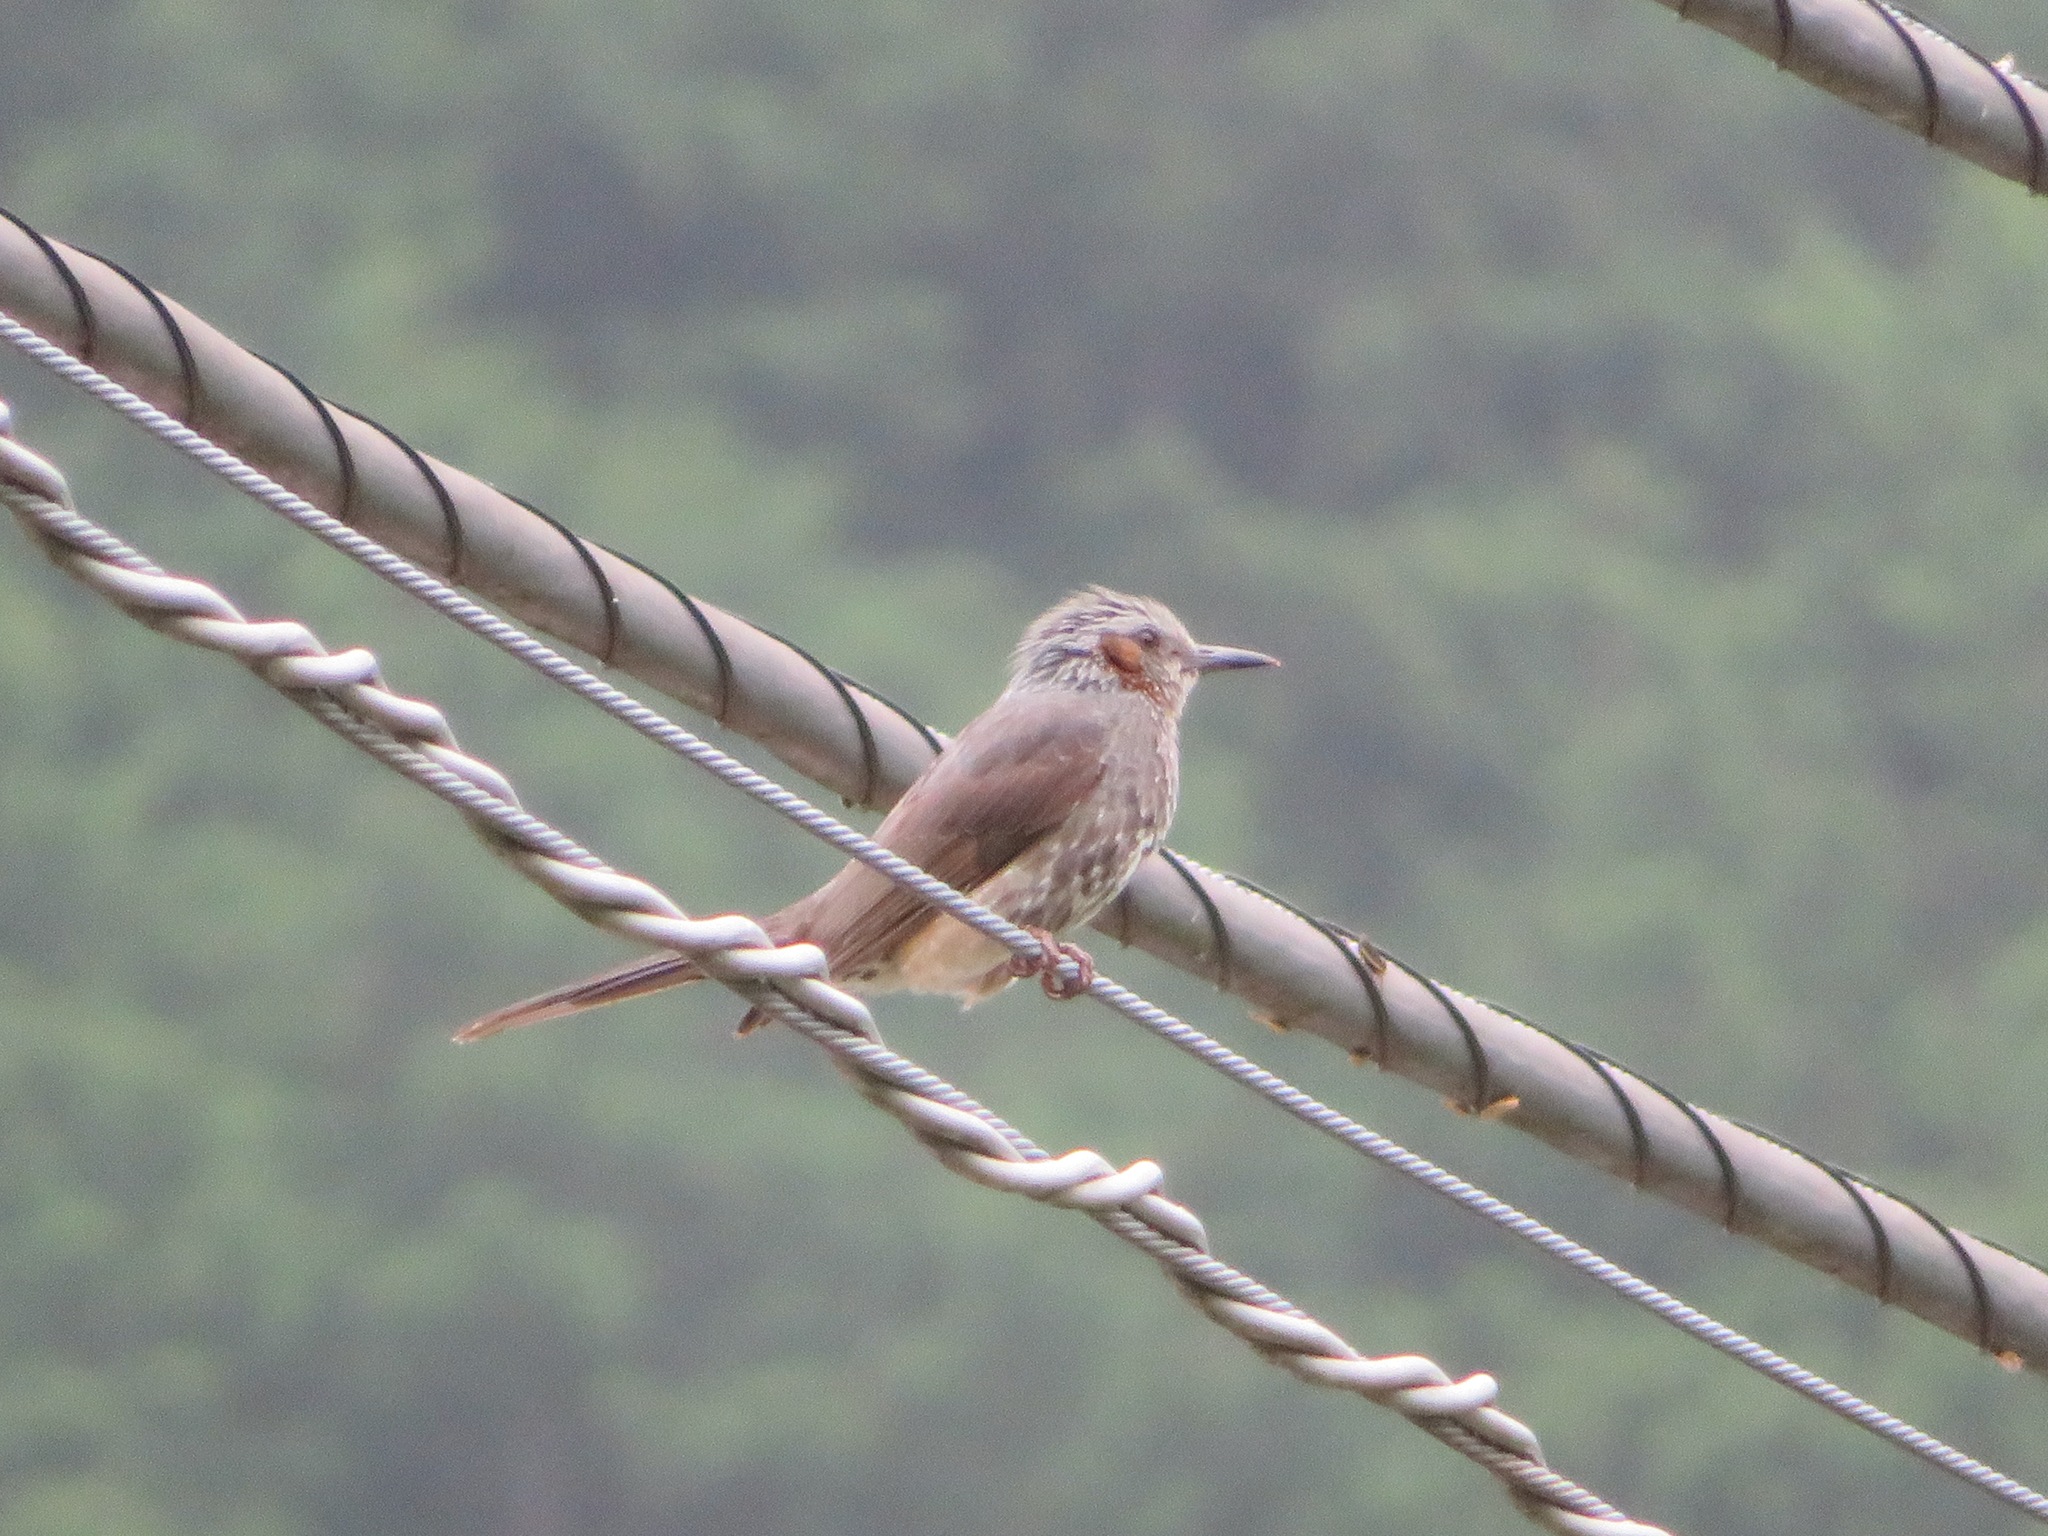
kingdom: Animalia
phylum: Chordata
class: Aves
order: Passeriformes
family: Pycnonotidae
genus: Hypsipetes
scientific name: Hypsipetes amaurotis
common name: Brown-eared bulbul
